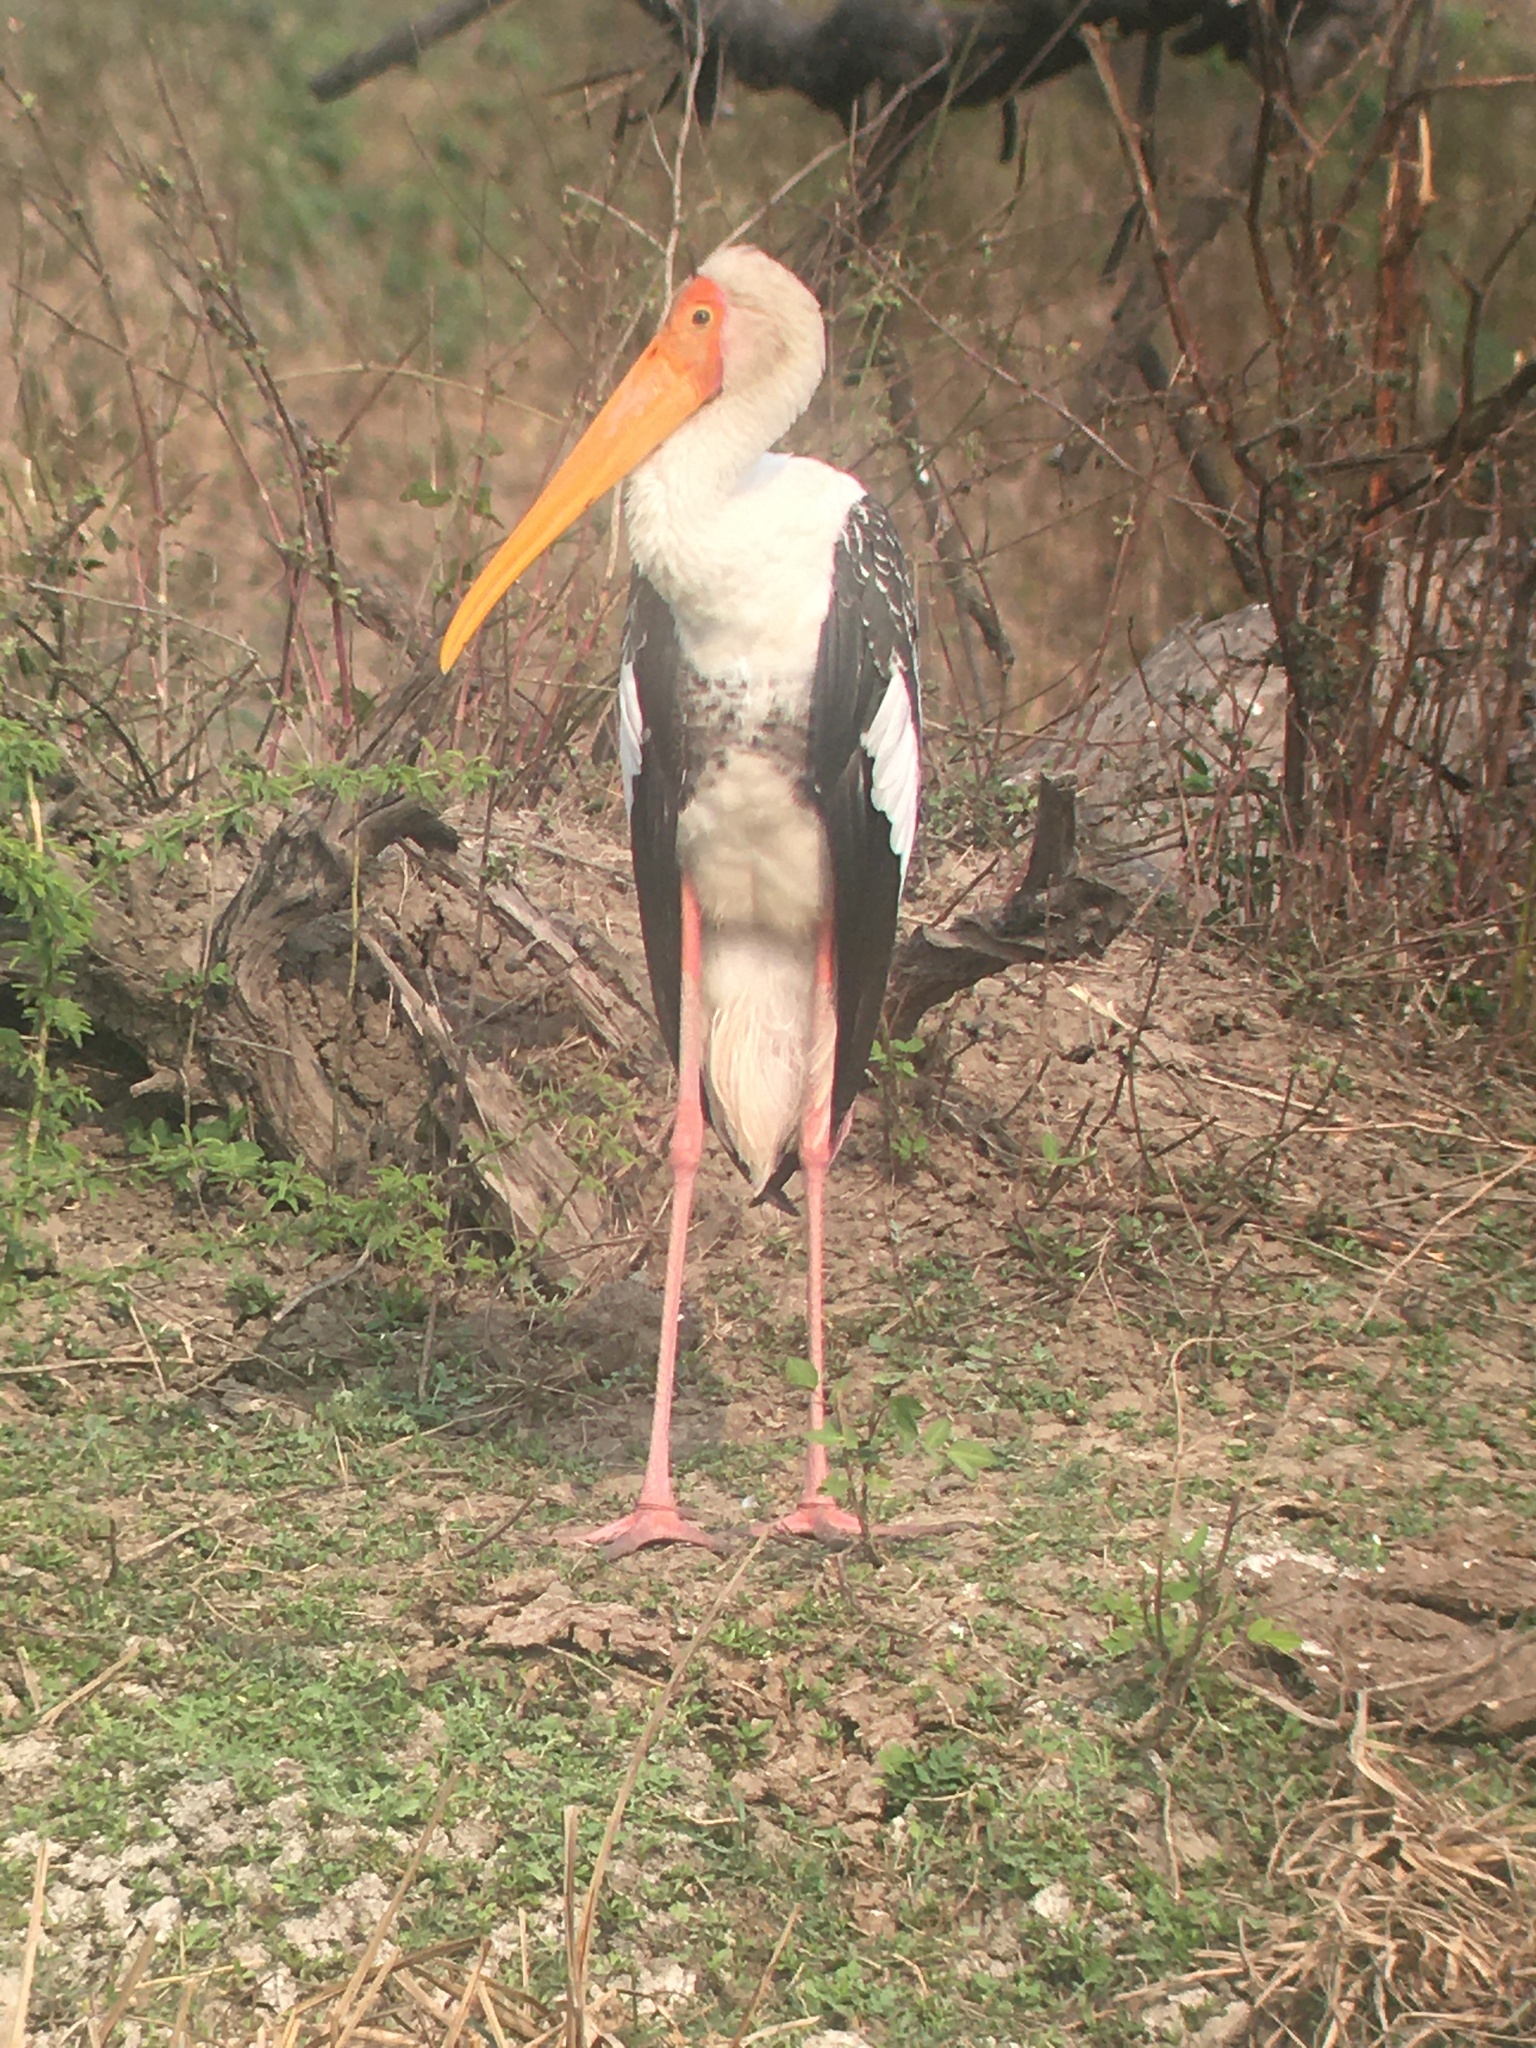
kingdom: Animalia
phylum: Chordata
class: Aves
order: Ciconiiformes
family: Ciconiidae
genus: Mycteria
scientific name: Mycteria leucocephala
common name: Painted stork
